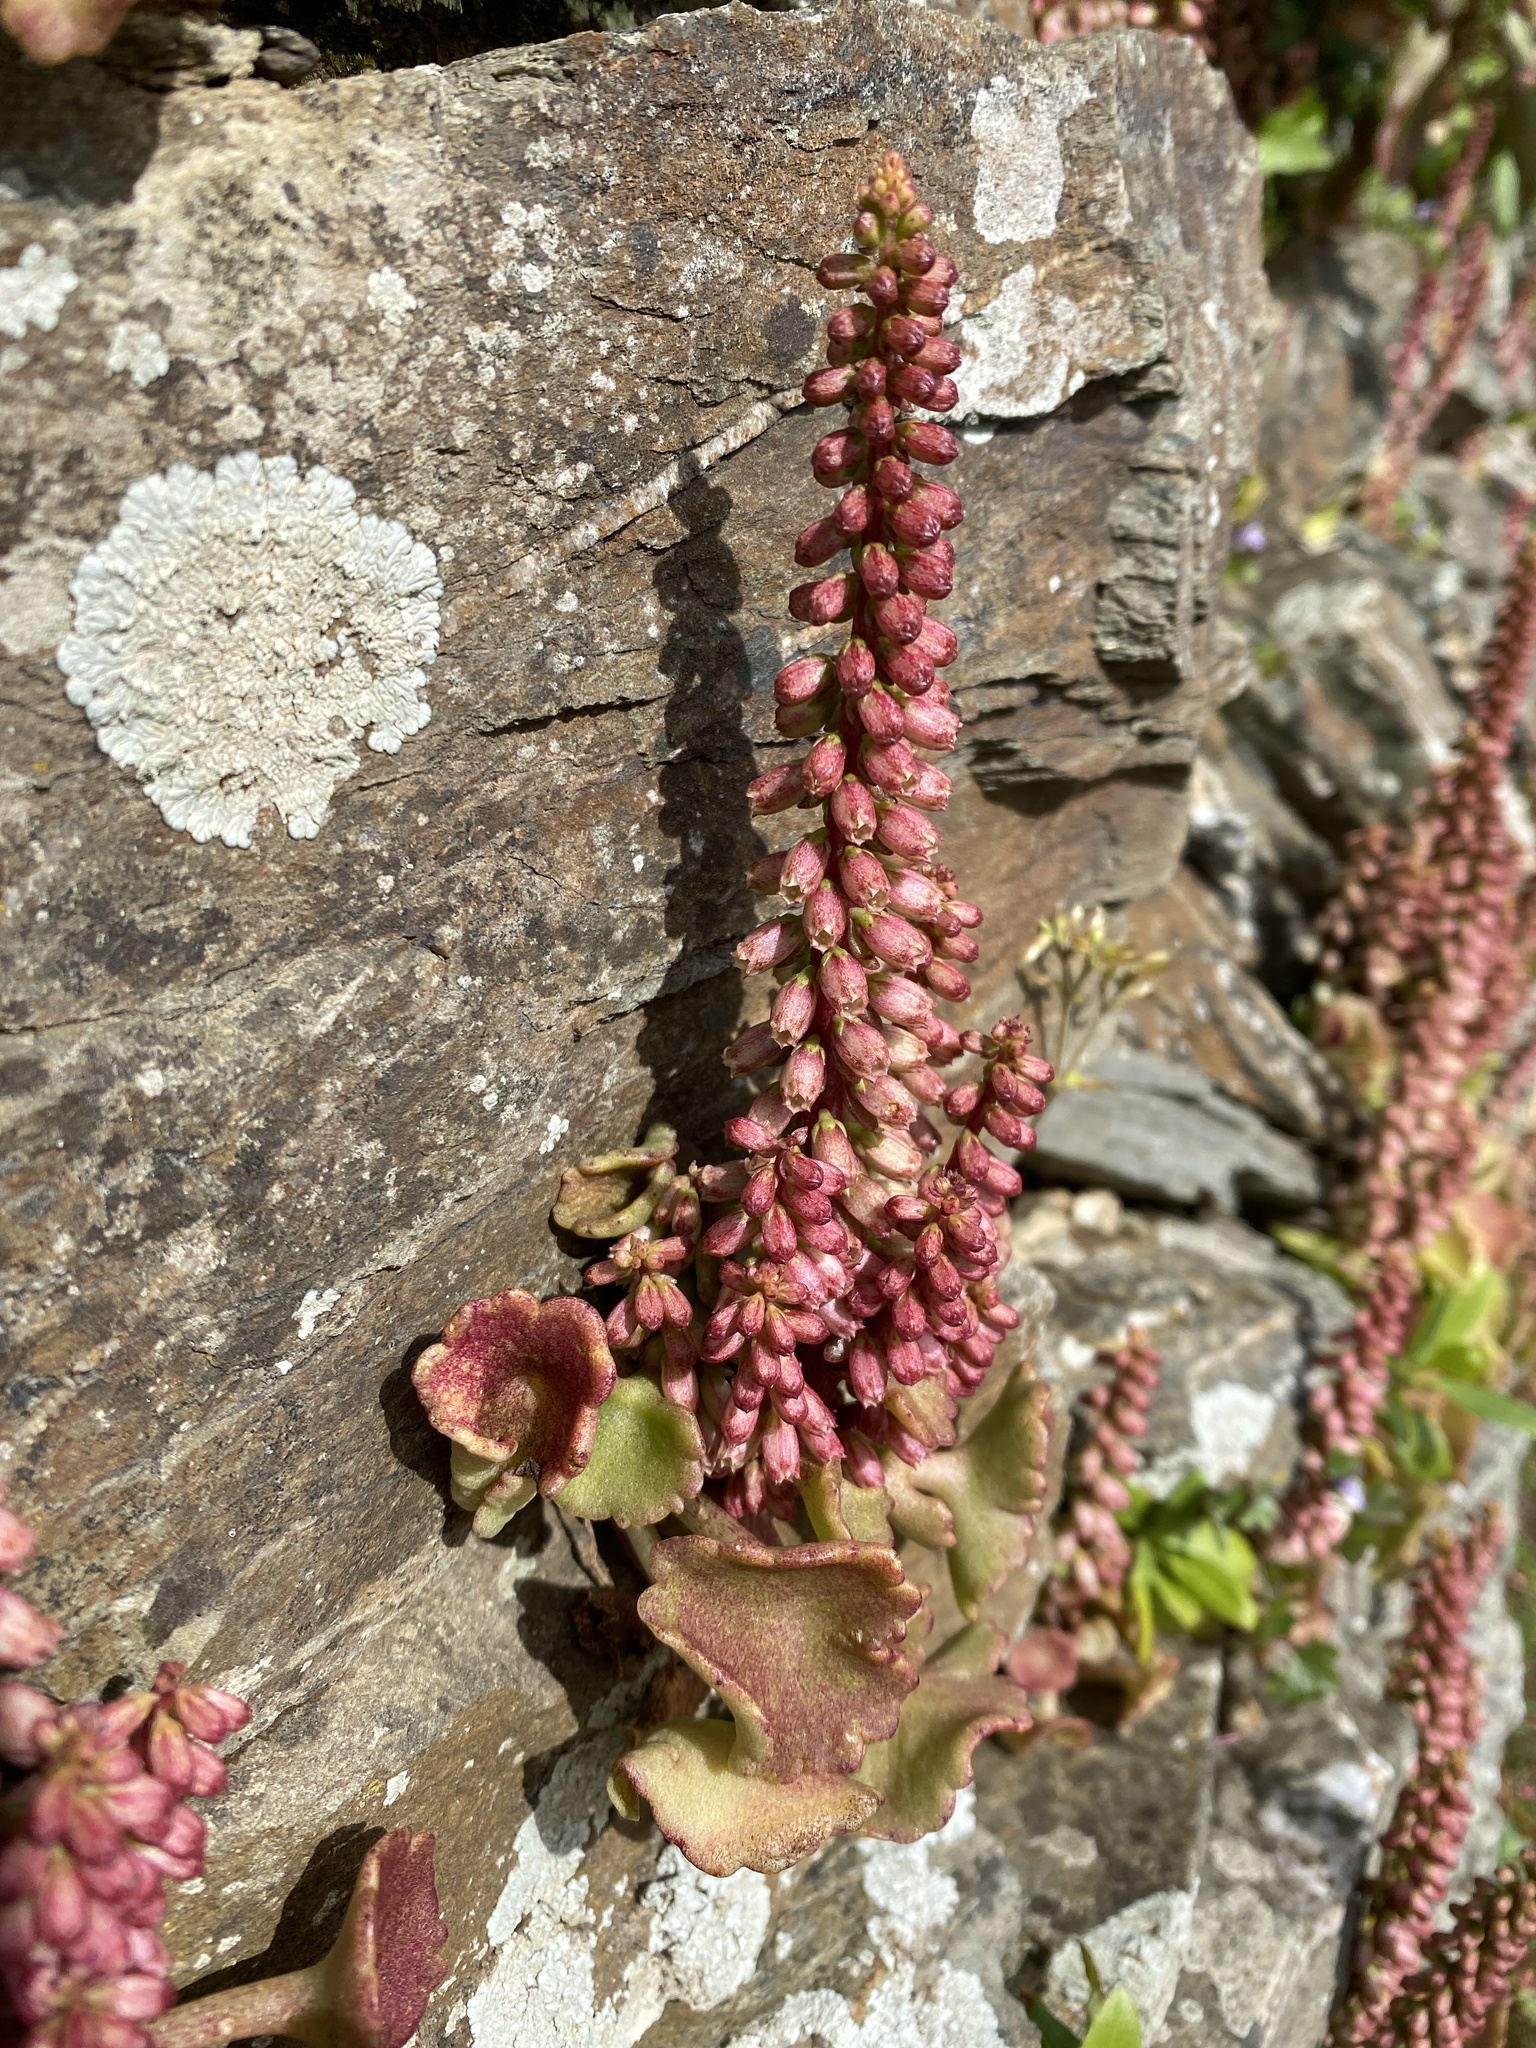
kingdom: Plantae
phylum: Tracheophyta
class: Magnoliopsida
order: Saxifragales
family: Crassulaceae
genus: Umbilicus
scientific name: Umbilicus rupestris
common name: Navelwort
